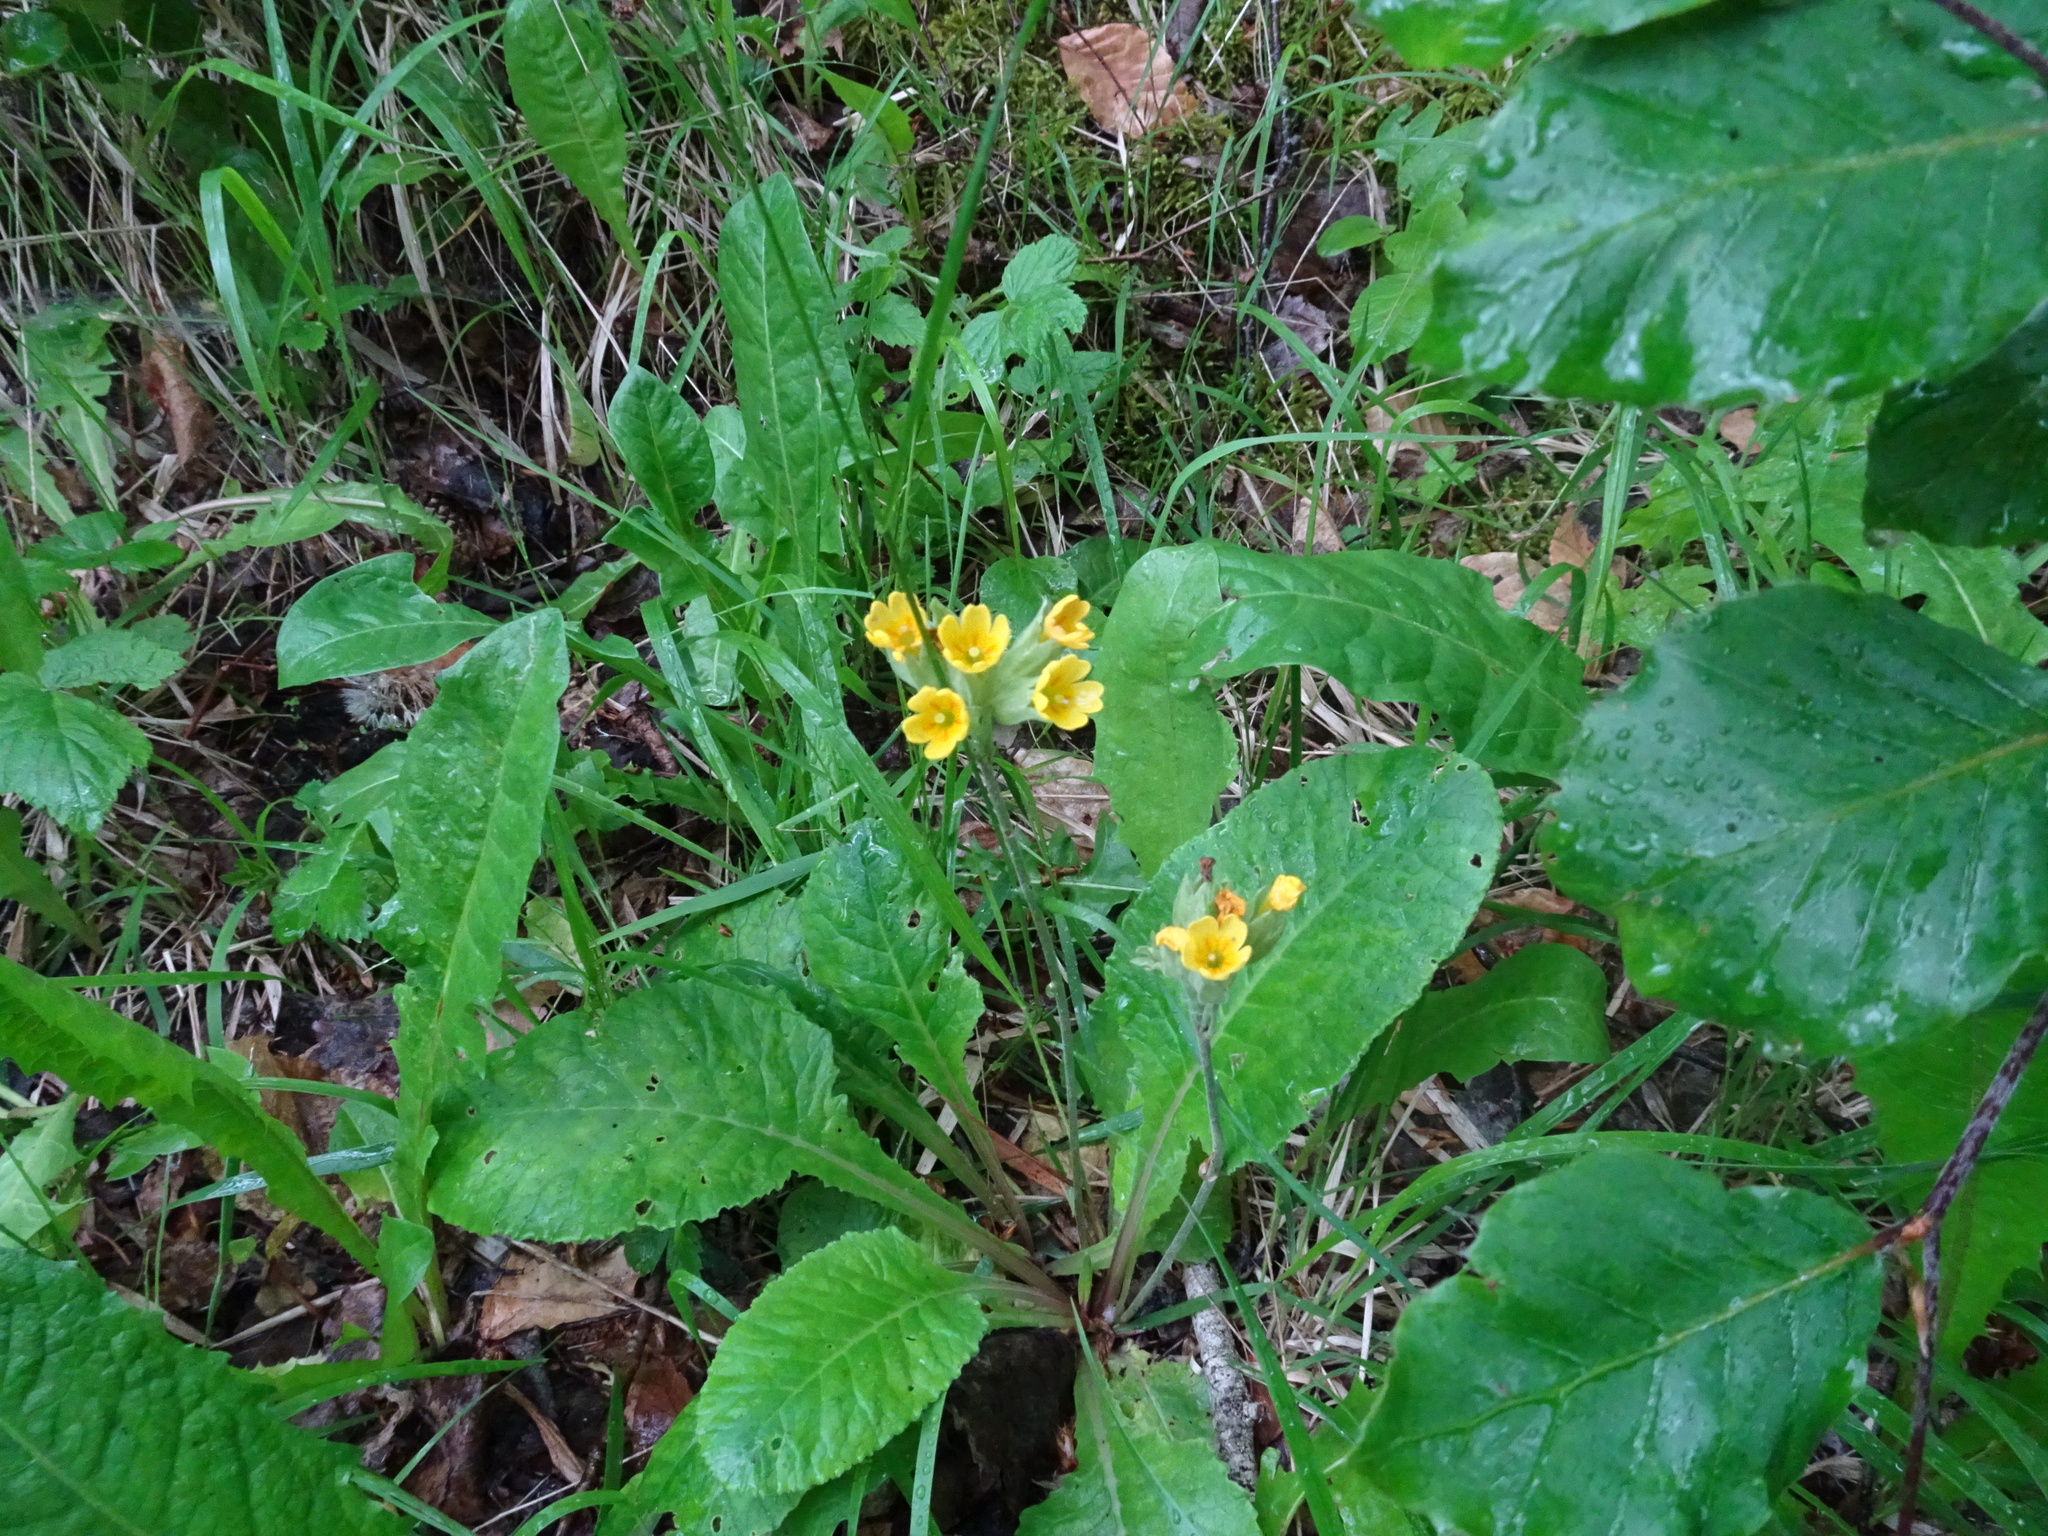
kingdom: Plantae
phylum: Tracheophyta
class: Magnoliopsida
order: Ericales
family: Primulaceae
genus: Primula
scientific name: Primula veris
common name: Cowslip
